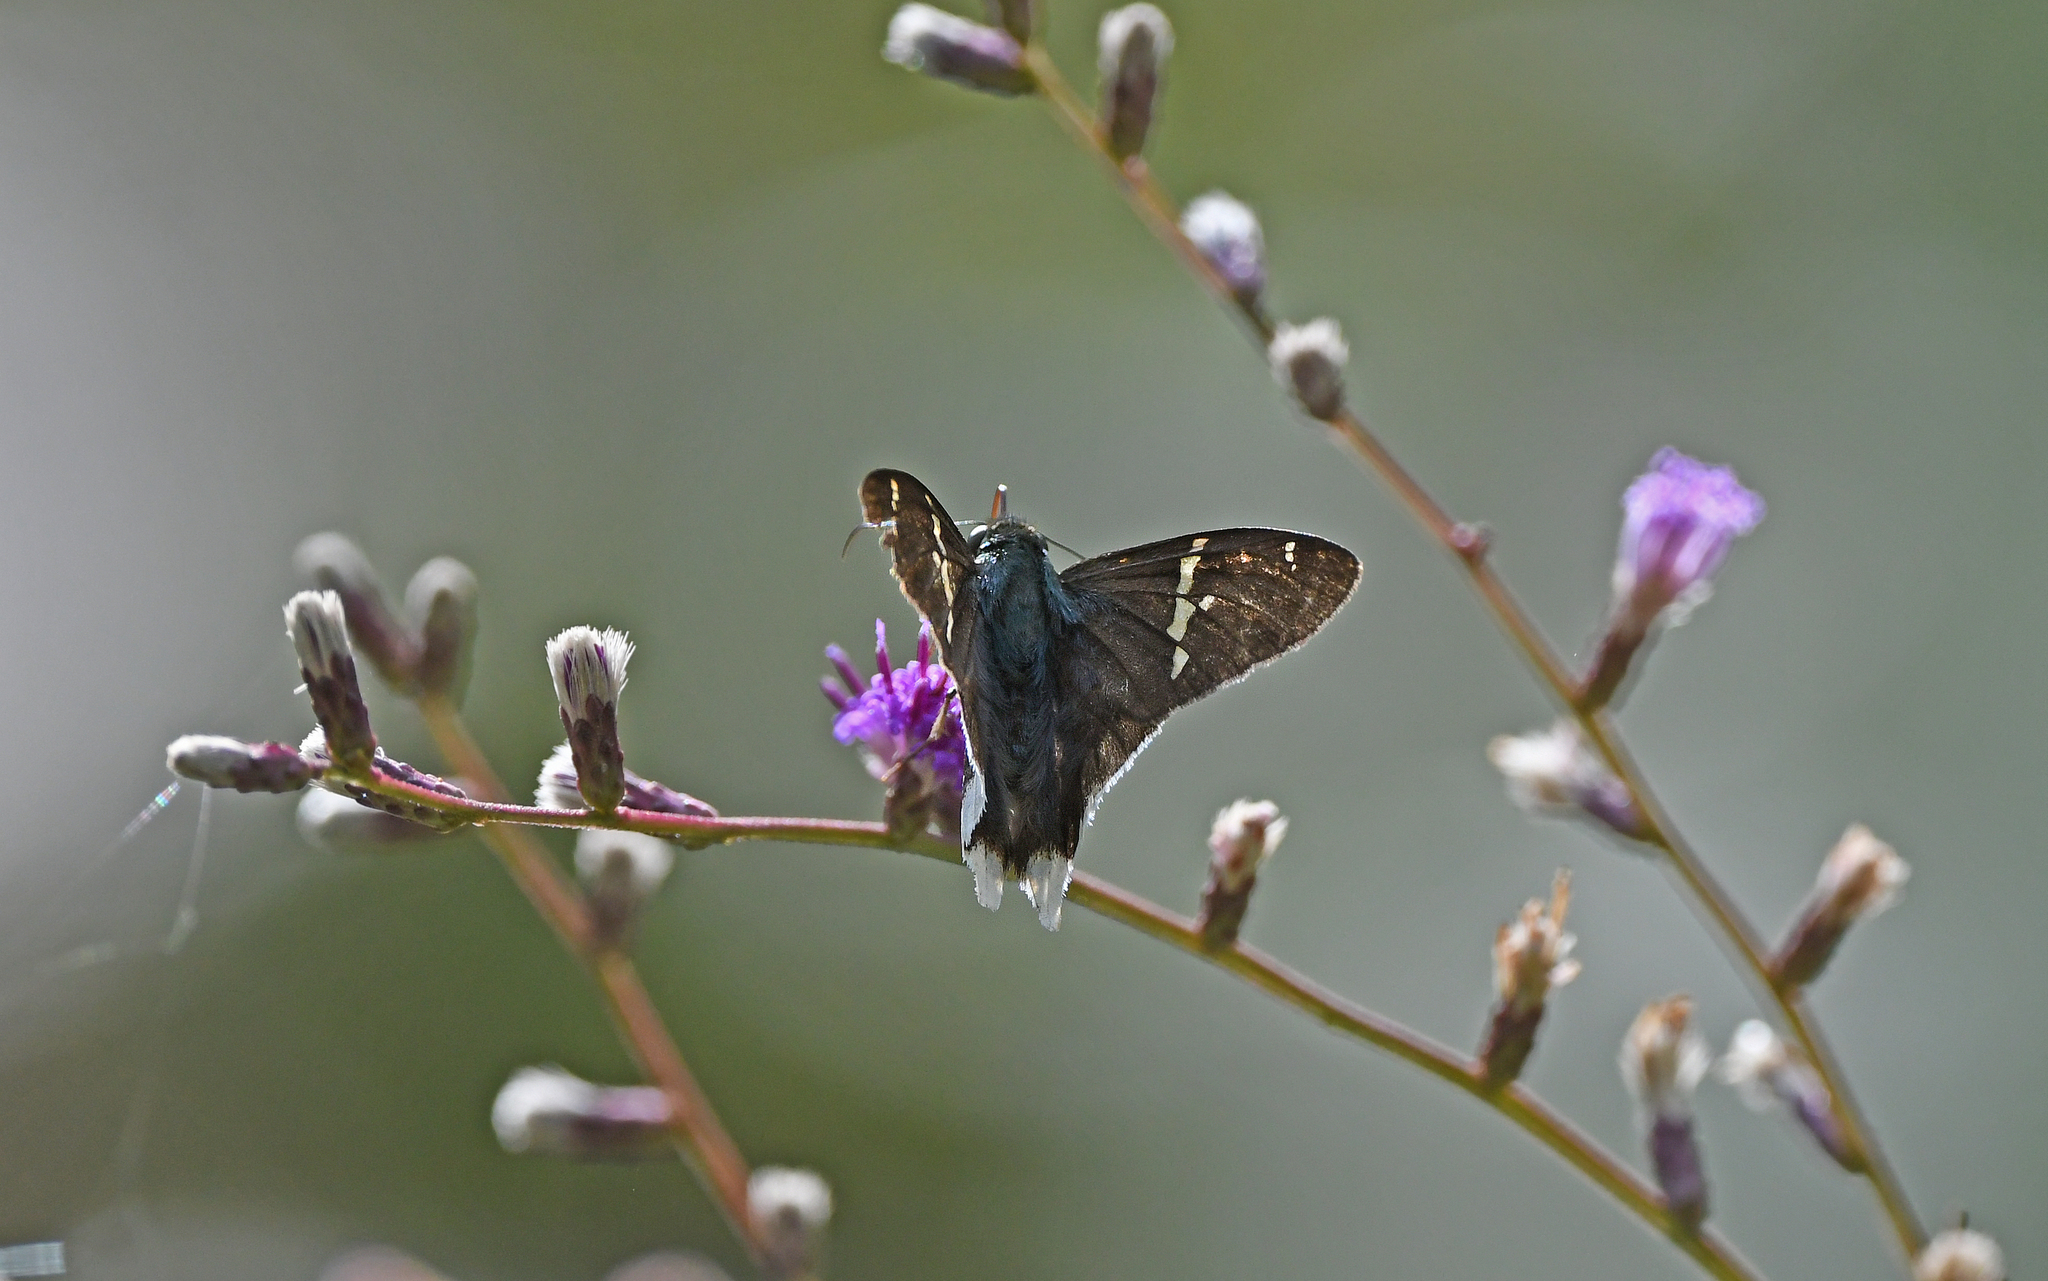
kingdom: Animalia
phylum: Arthropoda
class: Insecta
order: Lepidoptera
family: Hesperiidae
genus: Thorybes
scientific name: Thorybes
